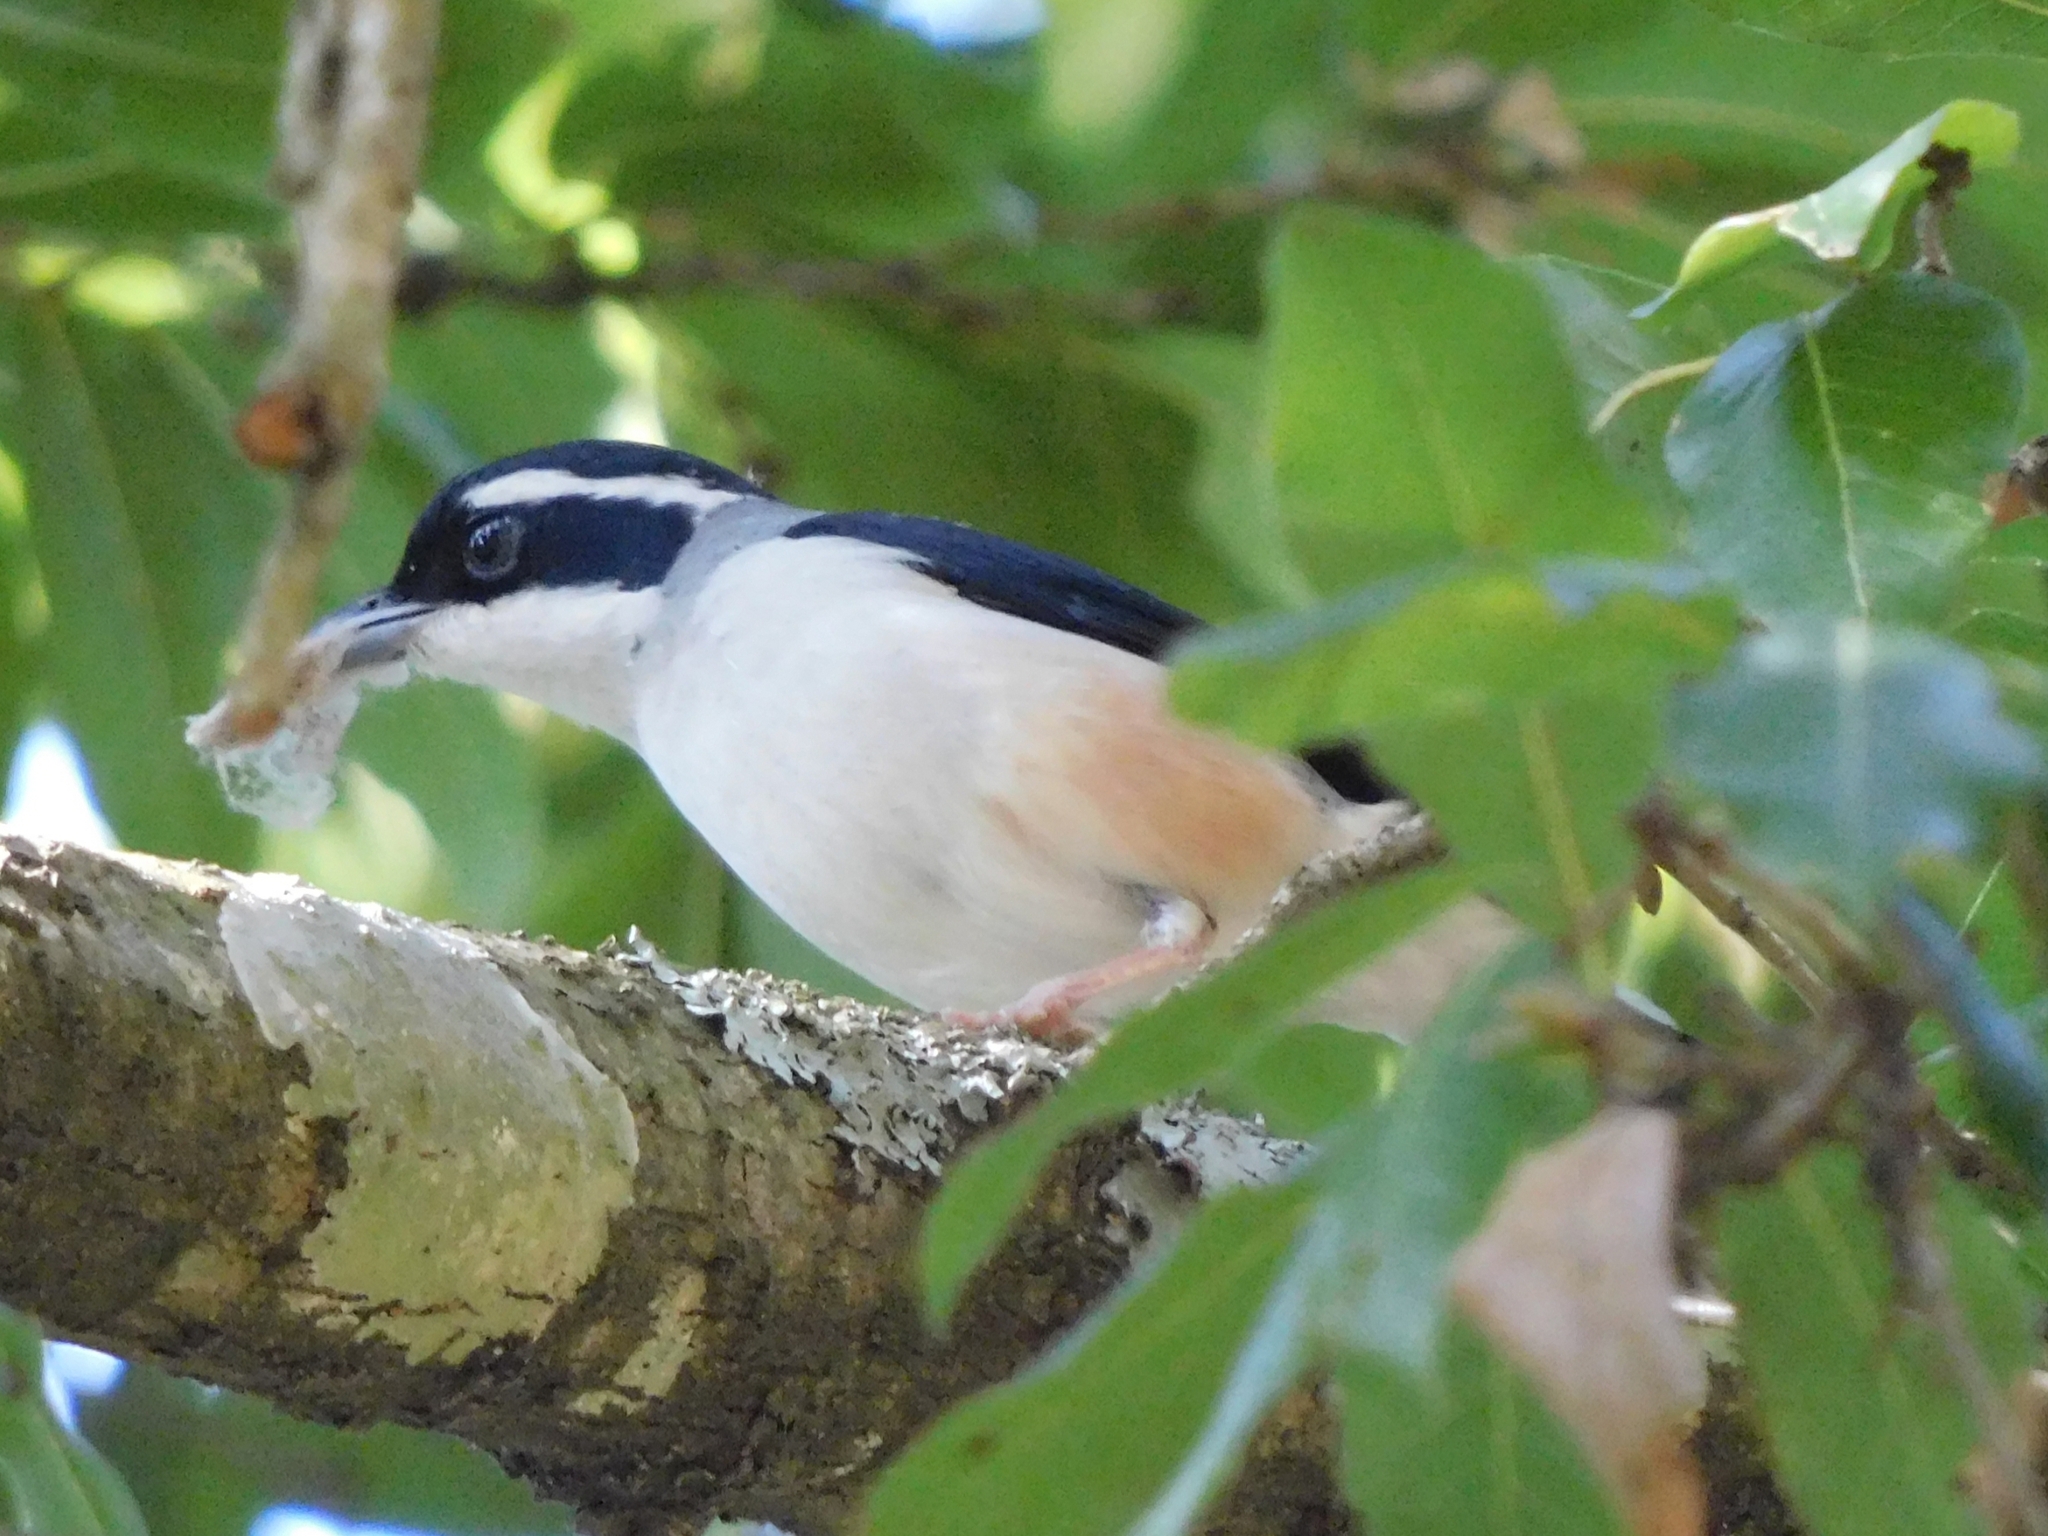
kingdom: Animalia
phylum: Chordata
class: Aves
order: Passeriformes
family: Vireonidae
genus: Pteruthius
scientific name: Pteruthius aeralatus
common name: Blyth's shrike-babbler
